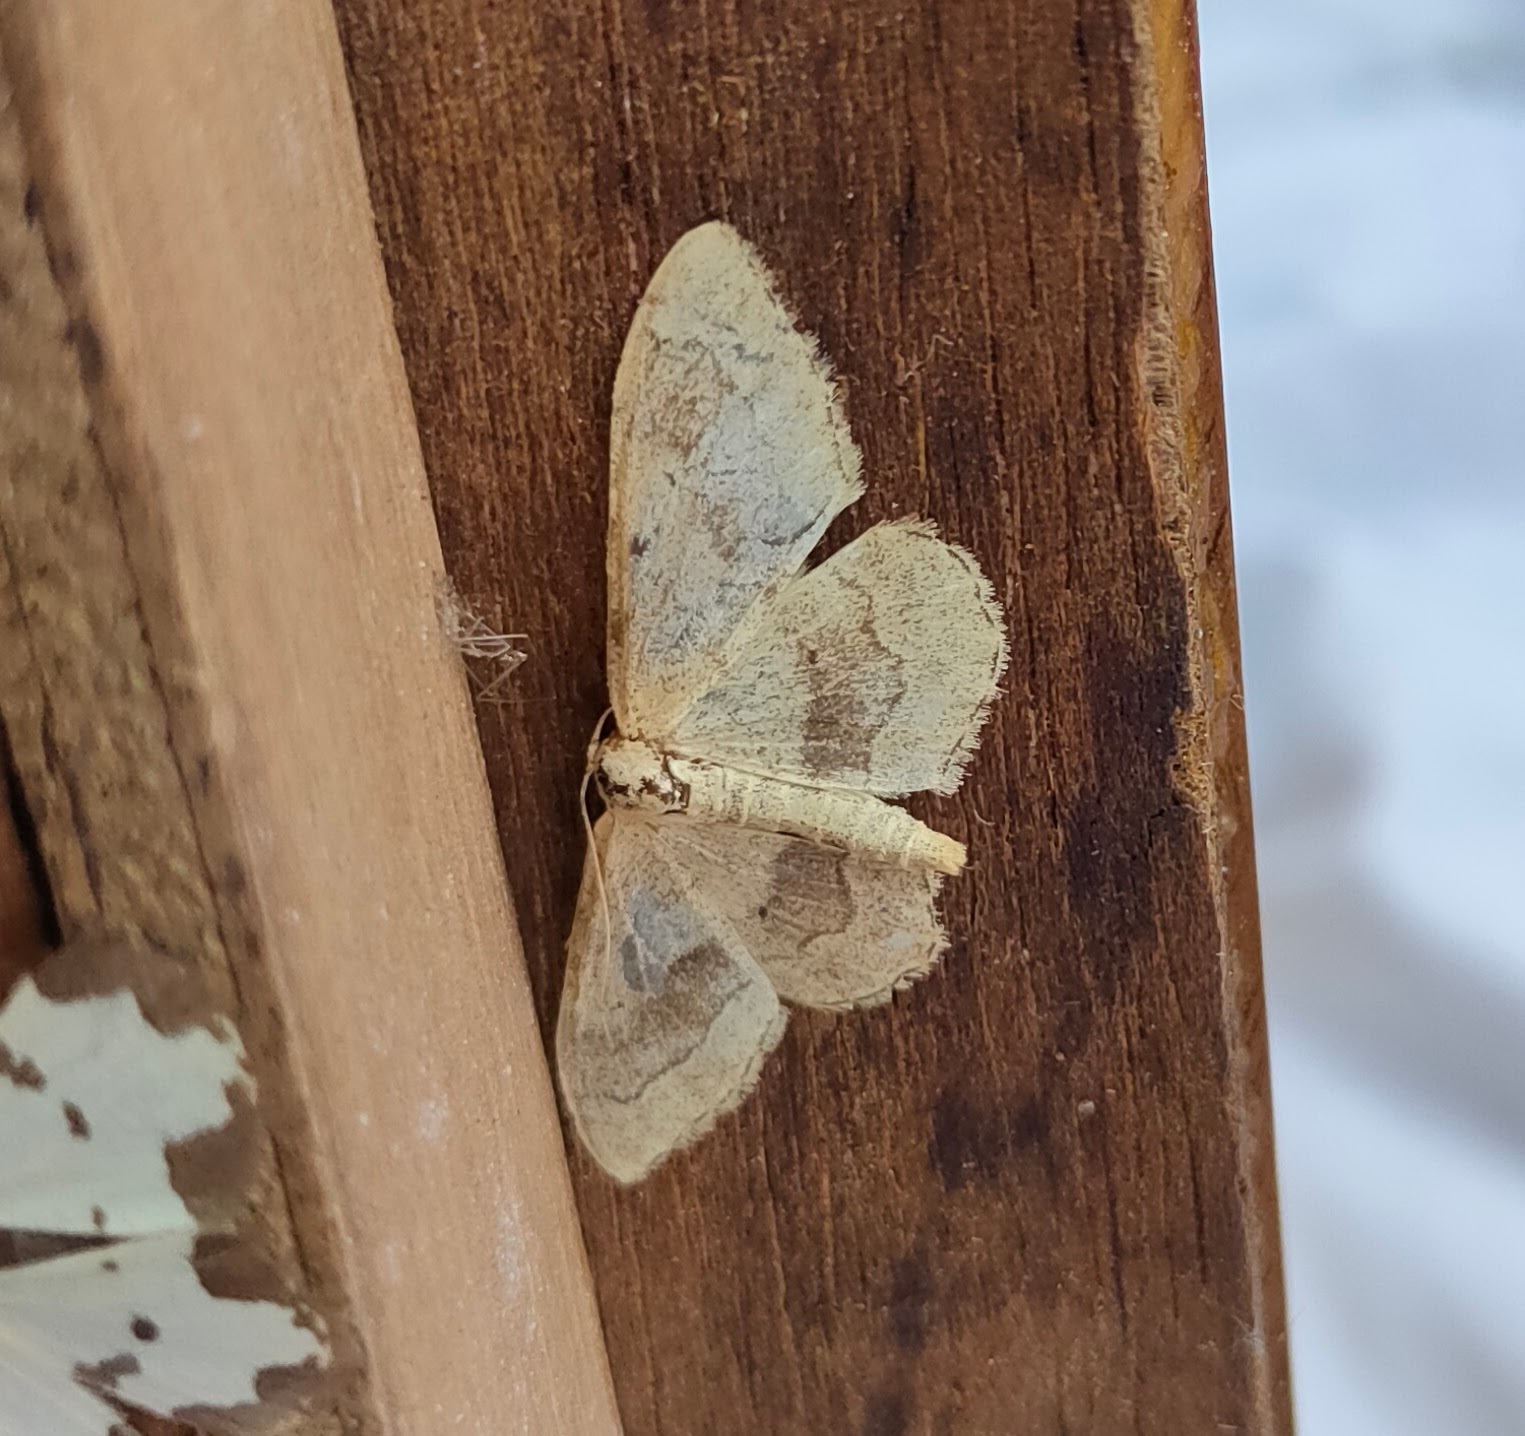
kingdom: Animalia
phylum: Arthropoda
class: Insecta
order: Lepidoptera
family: Geometridae
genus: Idaea
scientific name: Idaea aversata
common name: Riband wave
